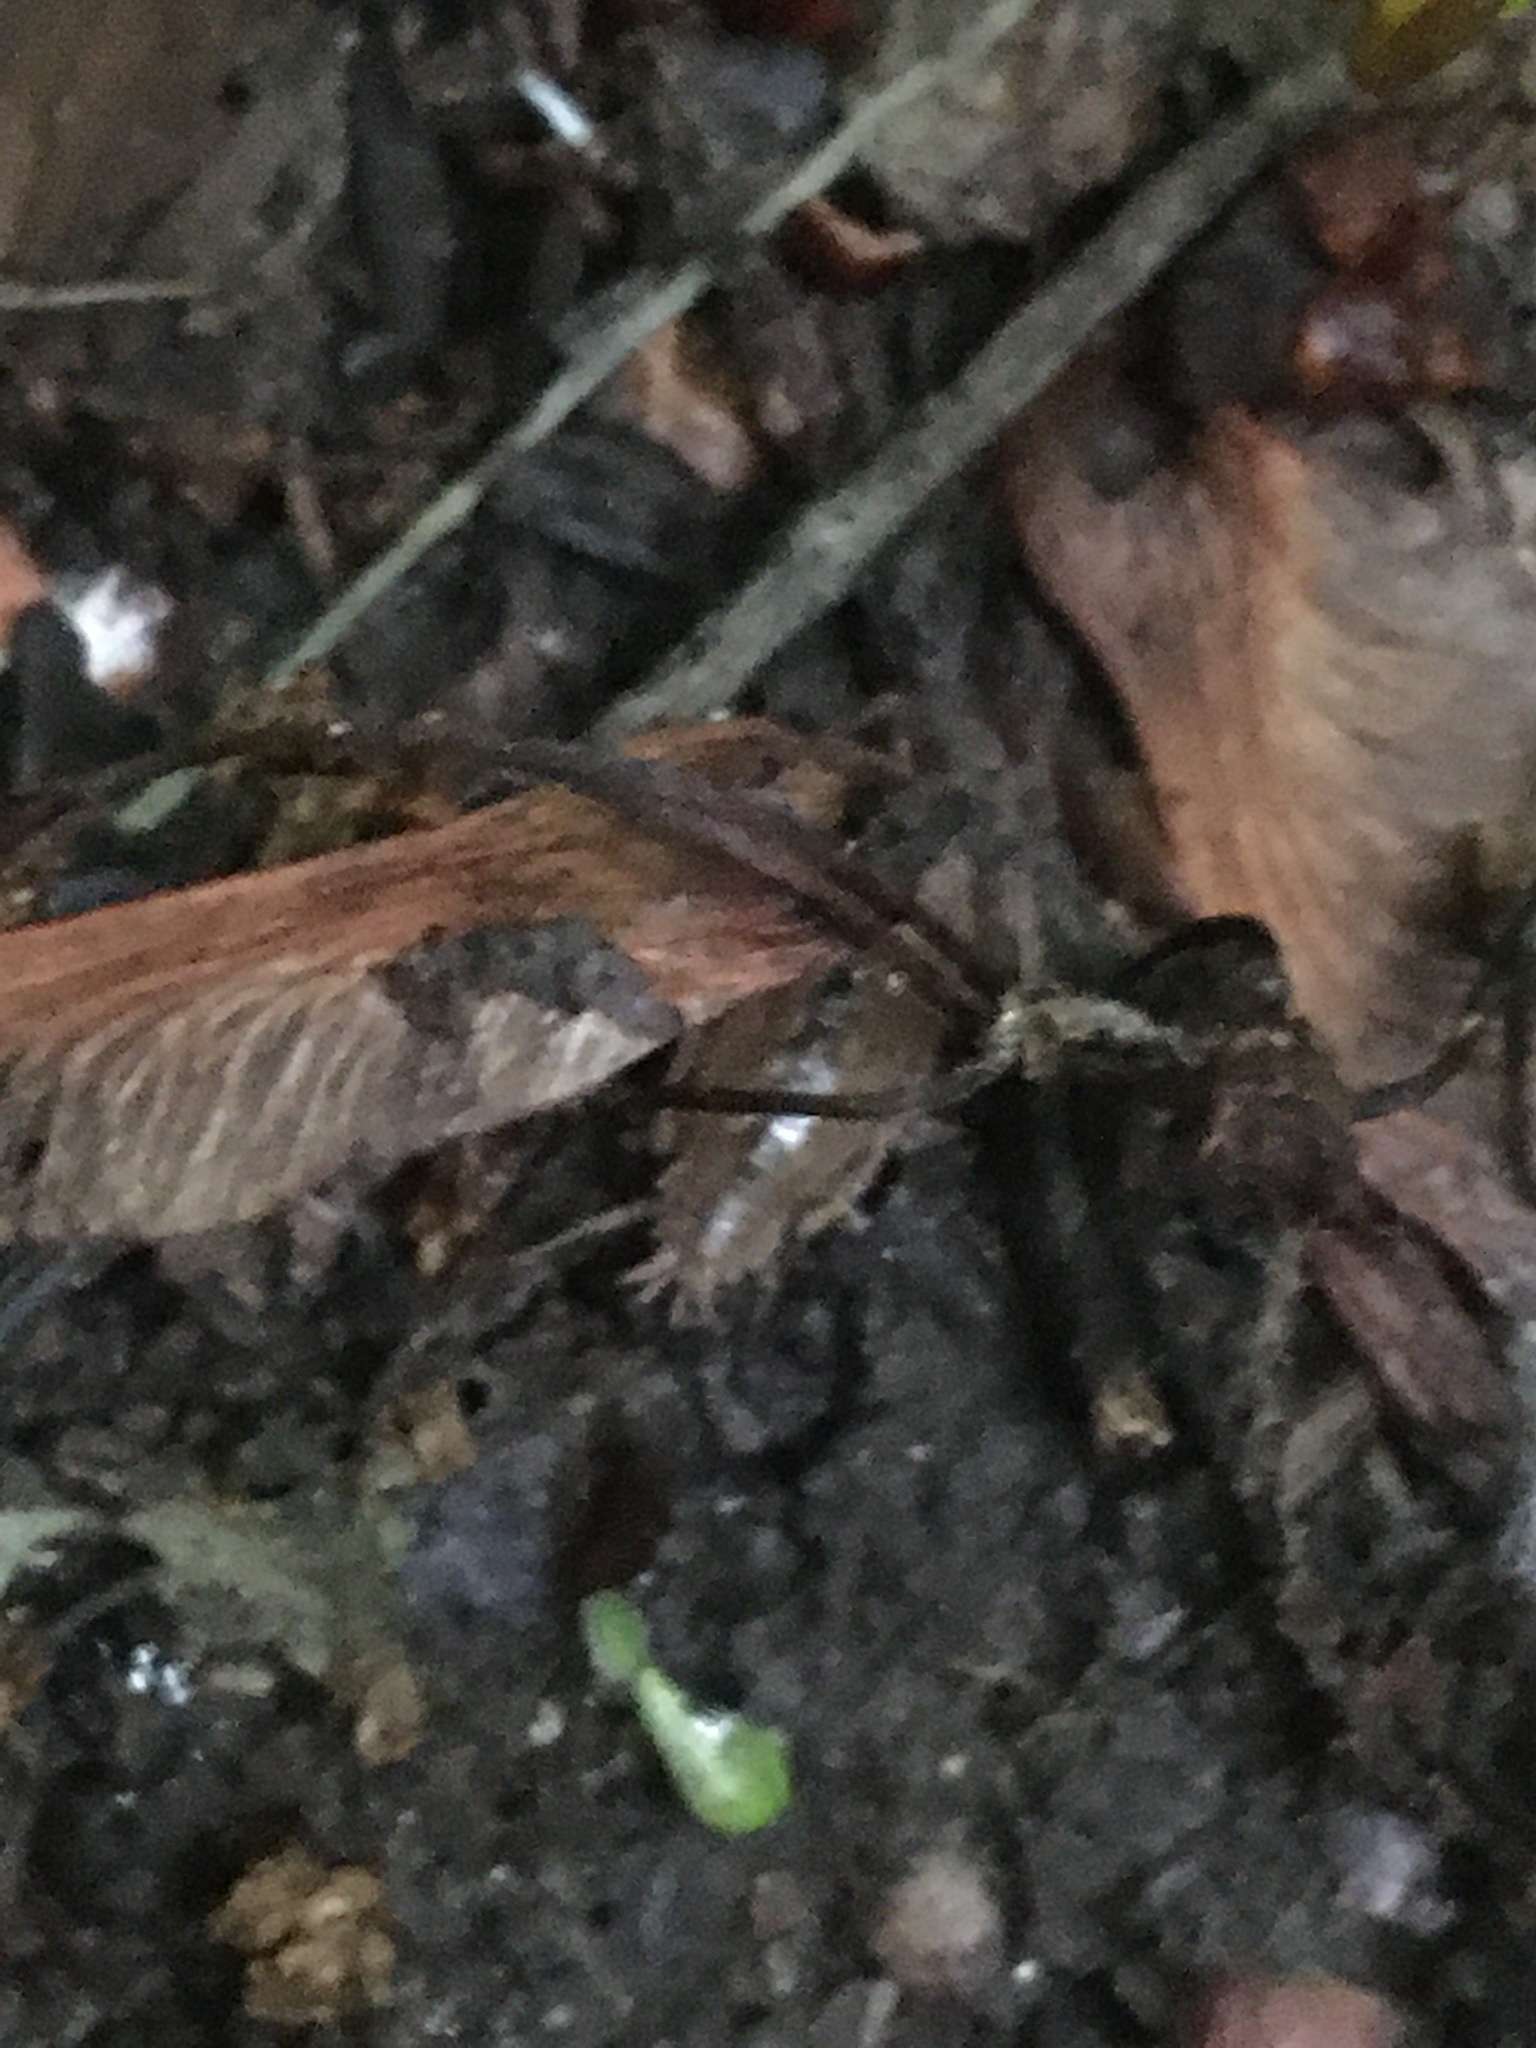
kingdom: Animalia
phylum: Arthropoda
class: Malacostraca
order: Isopoda
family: Philosciidae
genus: Philoscia
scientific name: Philoscia muscorum
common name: Common striped woodlouse
